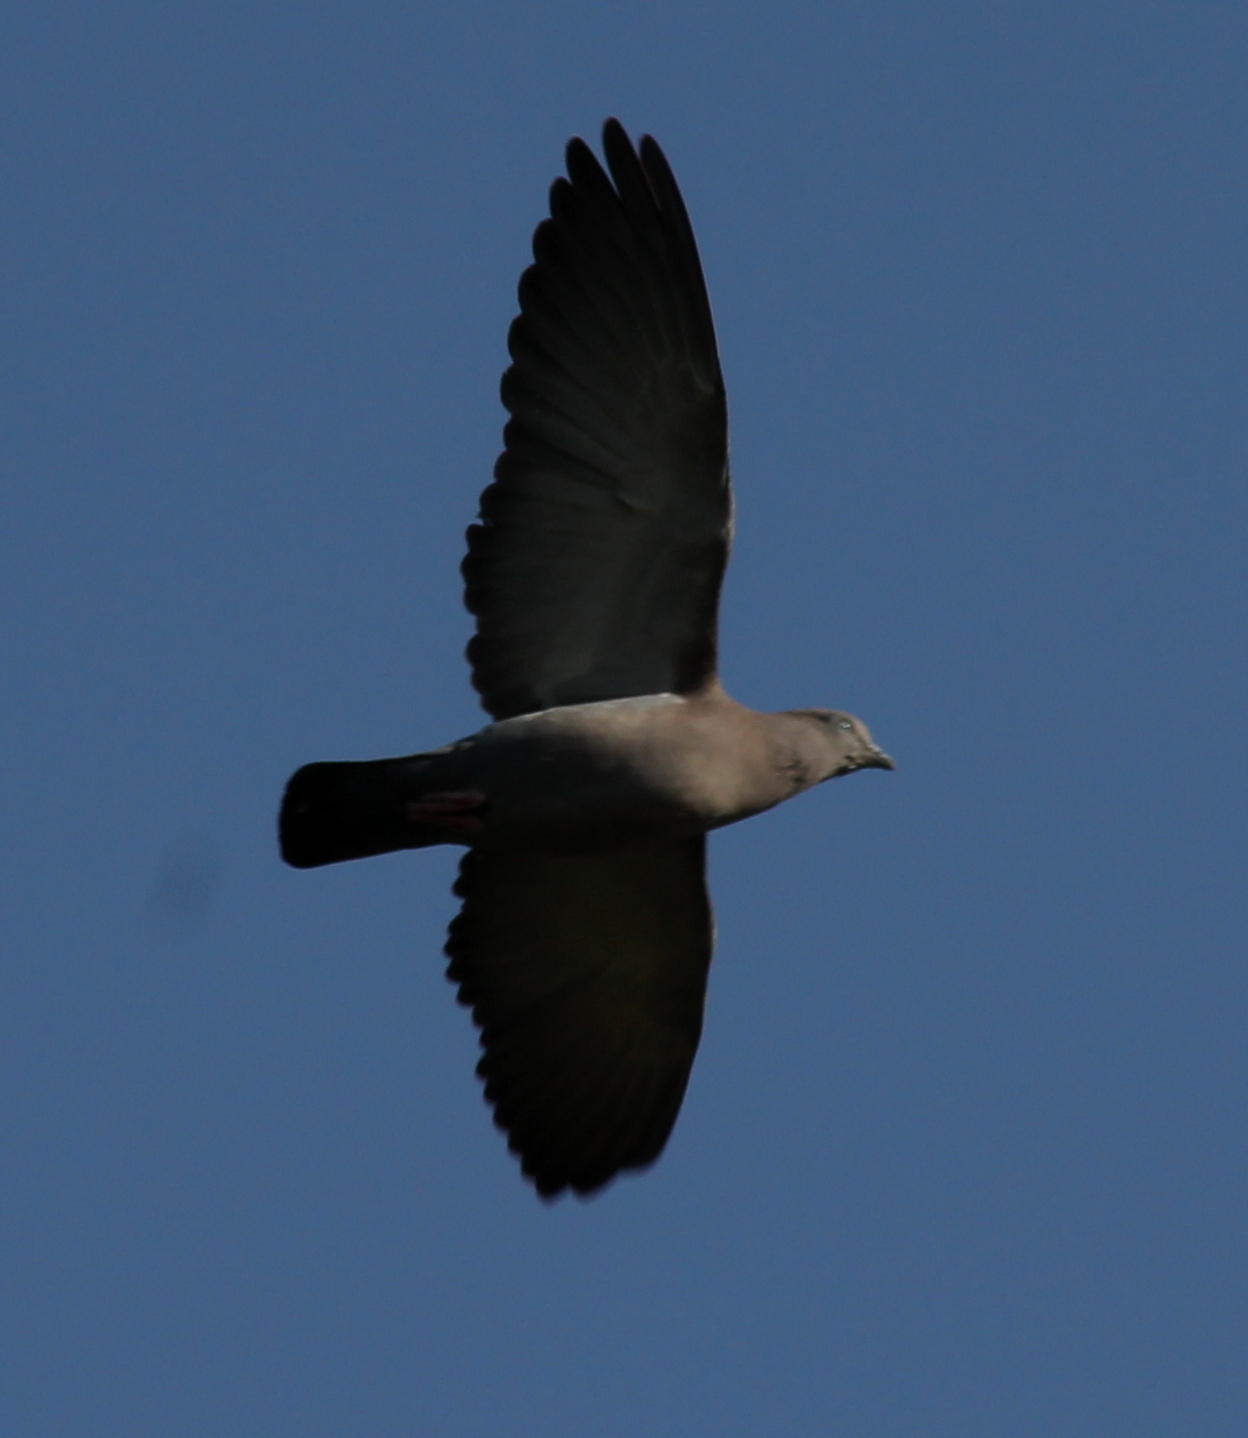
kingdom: Animalia
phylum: Chordata
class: Aves
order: Columbiformes
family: Columbidae
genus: Patagioenas
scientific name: Patagioenas maculosa
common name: Spot-winged pigeon
